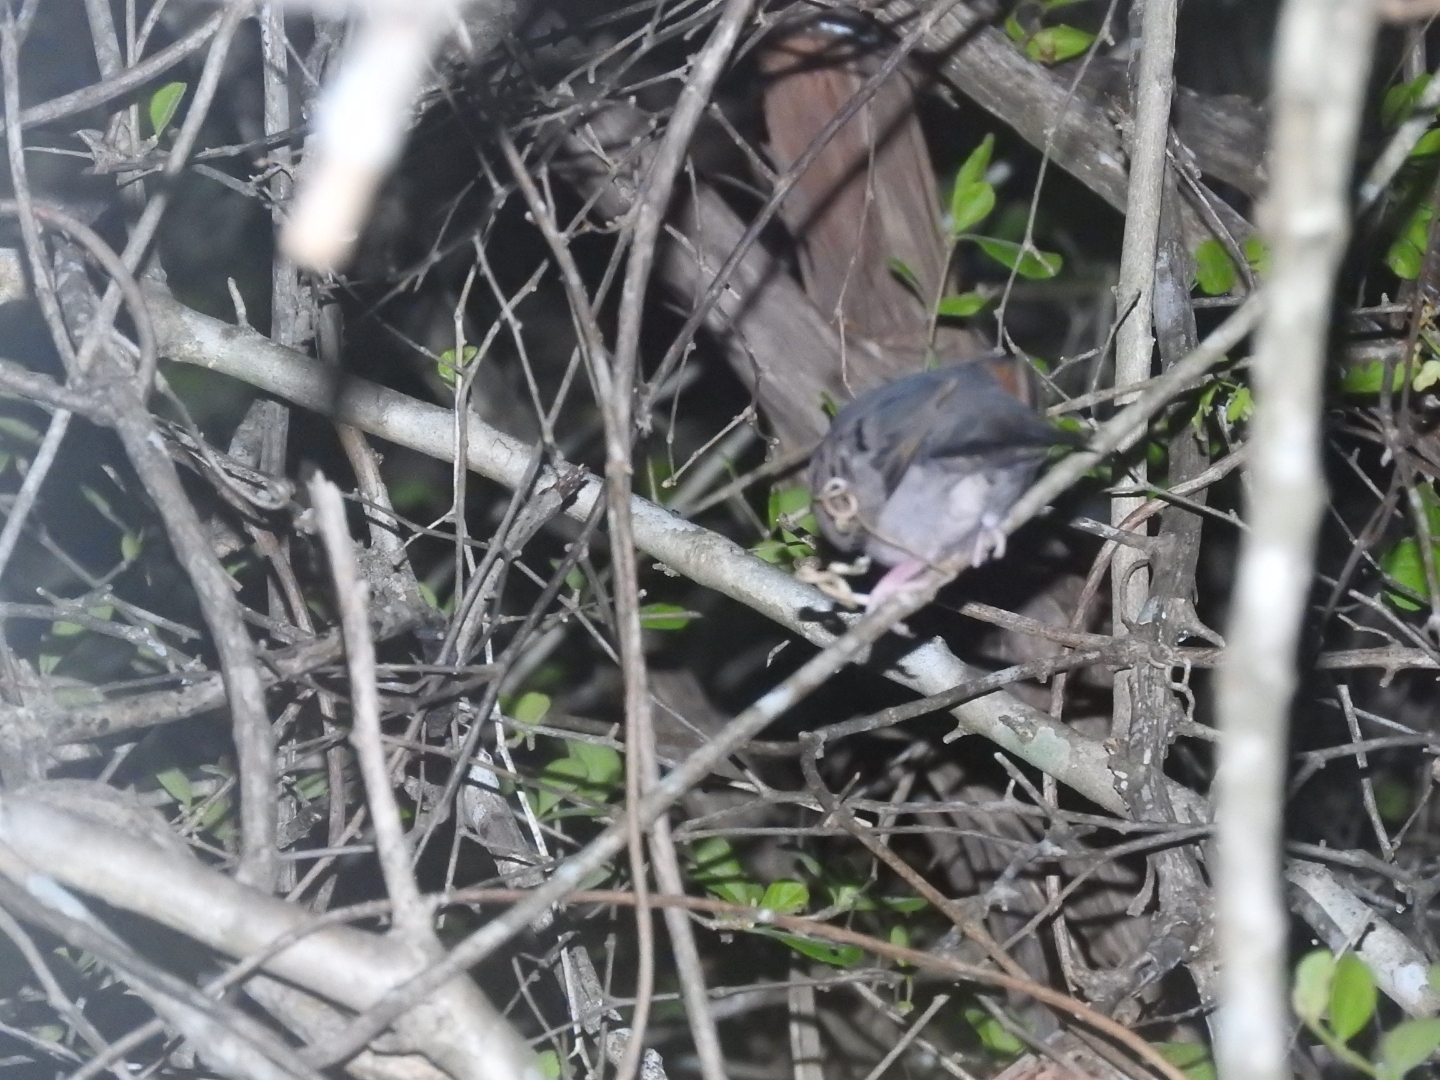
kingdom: Animalia
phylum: Chordata
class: Aves
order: Columbiformes
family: Columbidae
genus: Columbina
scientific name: Columbina passerina
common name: Common ground-dove
